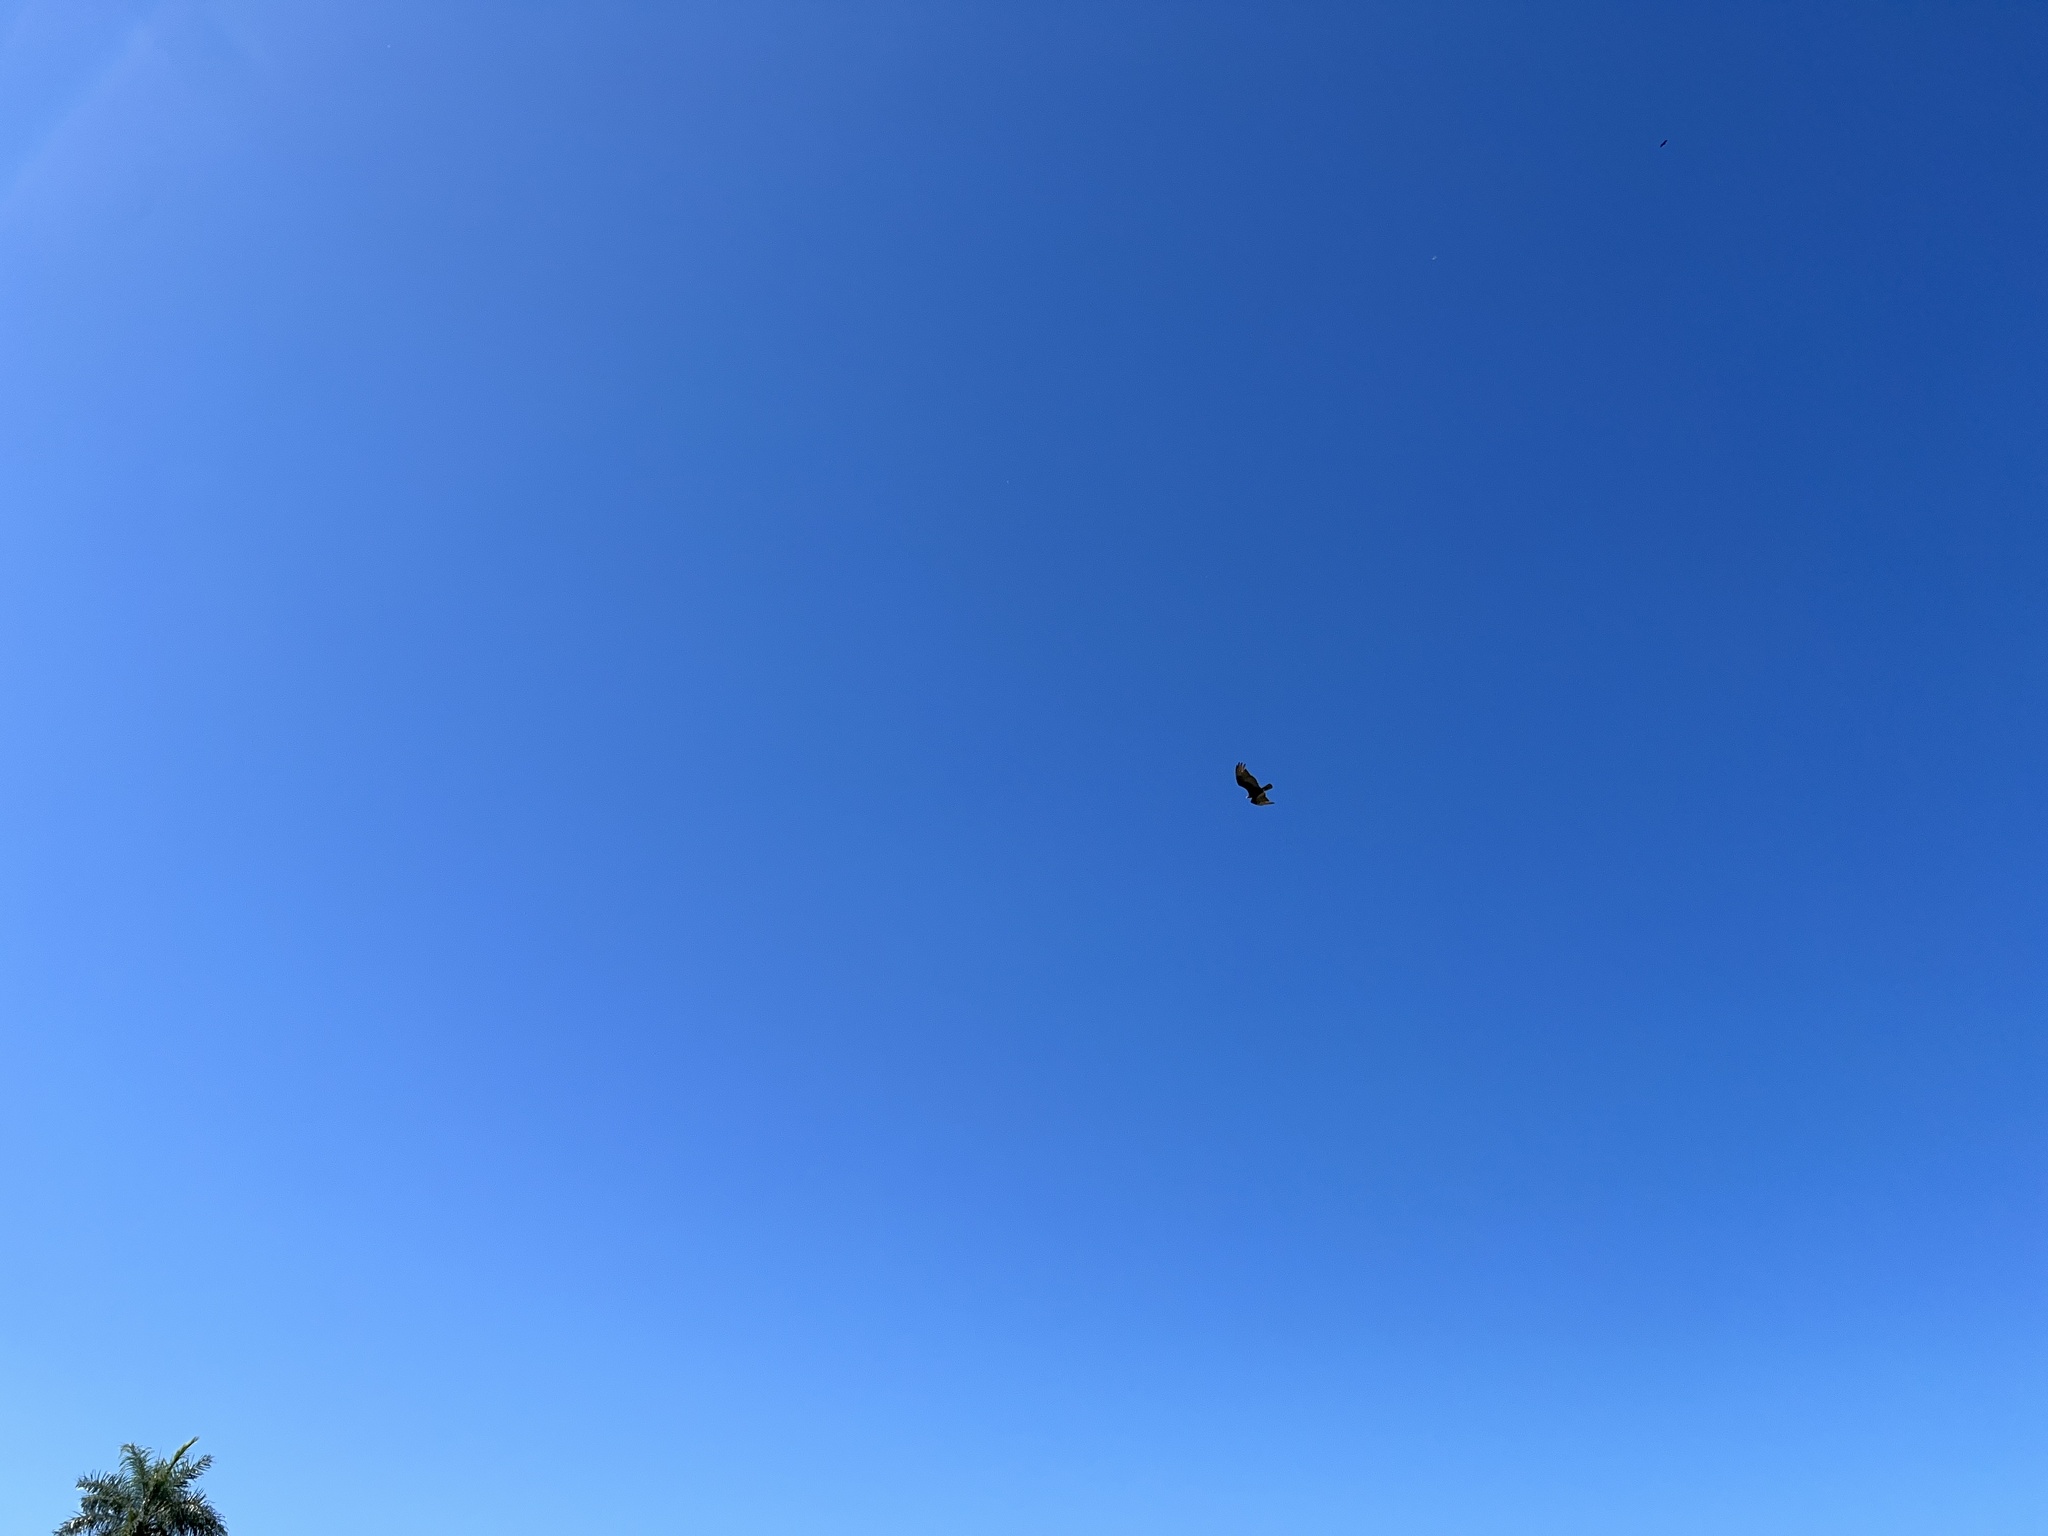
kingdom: Animalia
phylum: Chordata
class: Aves
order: Accipitriformes
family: Cathartidae
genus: Cathartes
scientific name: Cathartes burrovianus
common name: Lesser yellow-headed vulture
